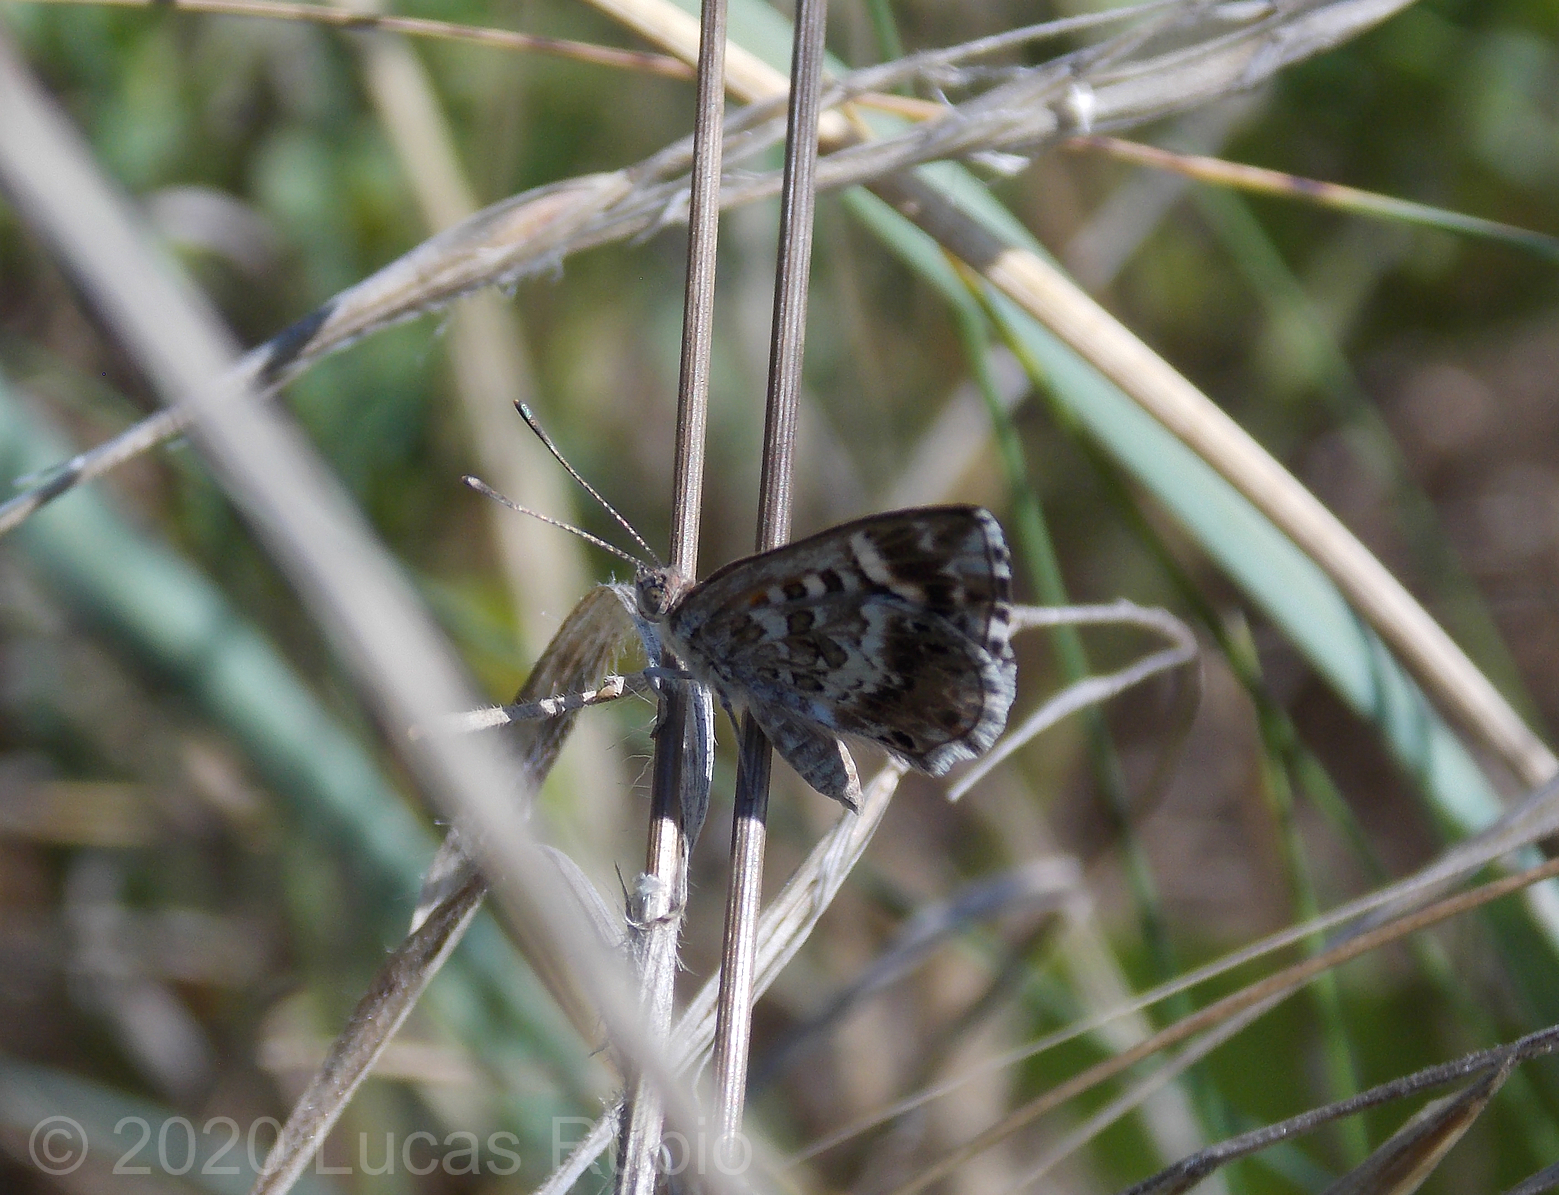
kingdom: Animalia
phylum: Arthropoda
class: Insecta
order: Lepidoptera
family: Lycaenidae
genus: Aricoris
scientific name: Aricoris signata
